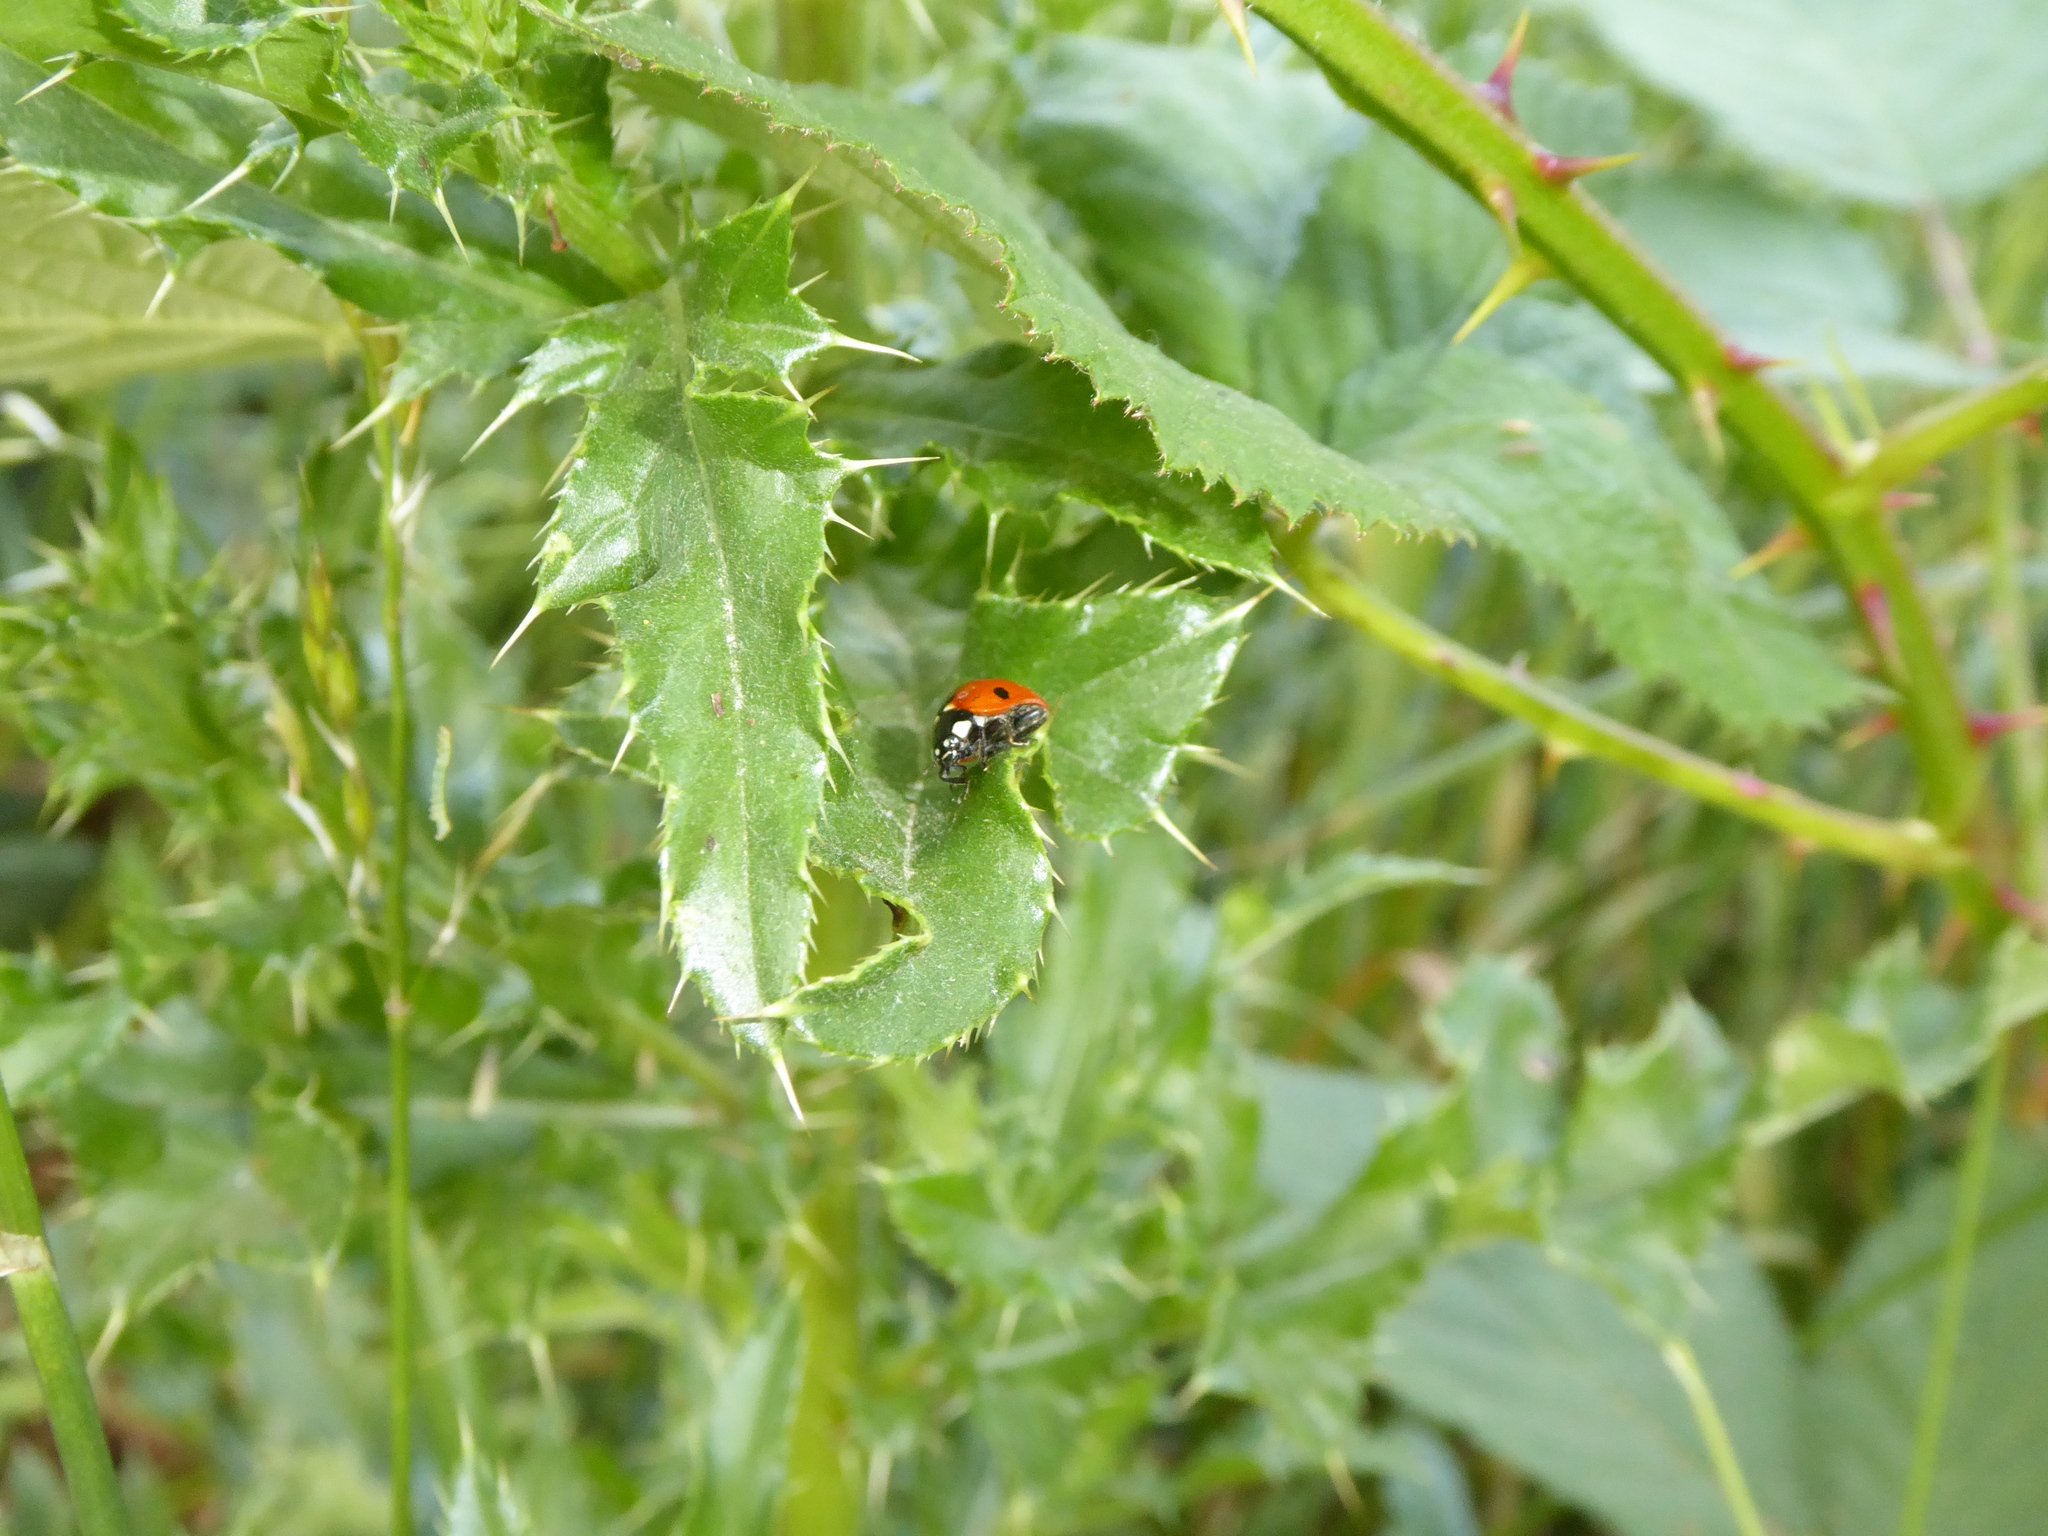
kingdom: Animalia
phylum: Arthropoda
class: Insecta
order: Coleoptera
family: Coccinellidae
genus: Coccinella
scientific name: Coccinella septempunctata
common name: Sevenspotted lady beetle
